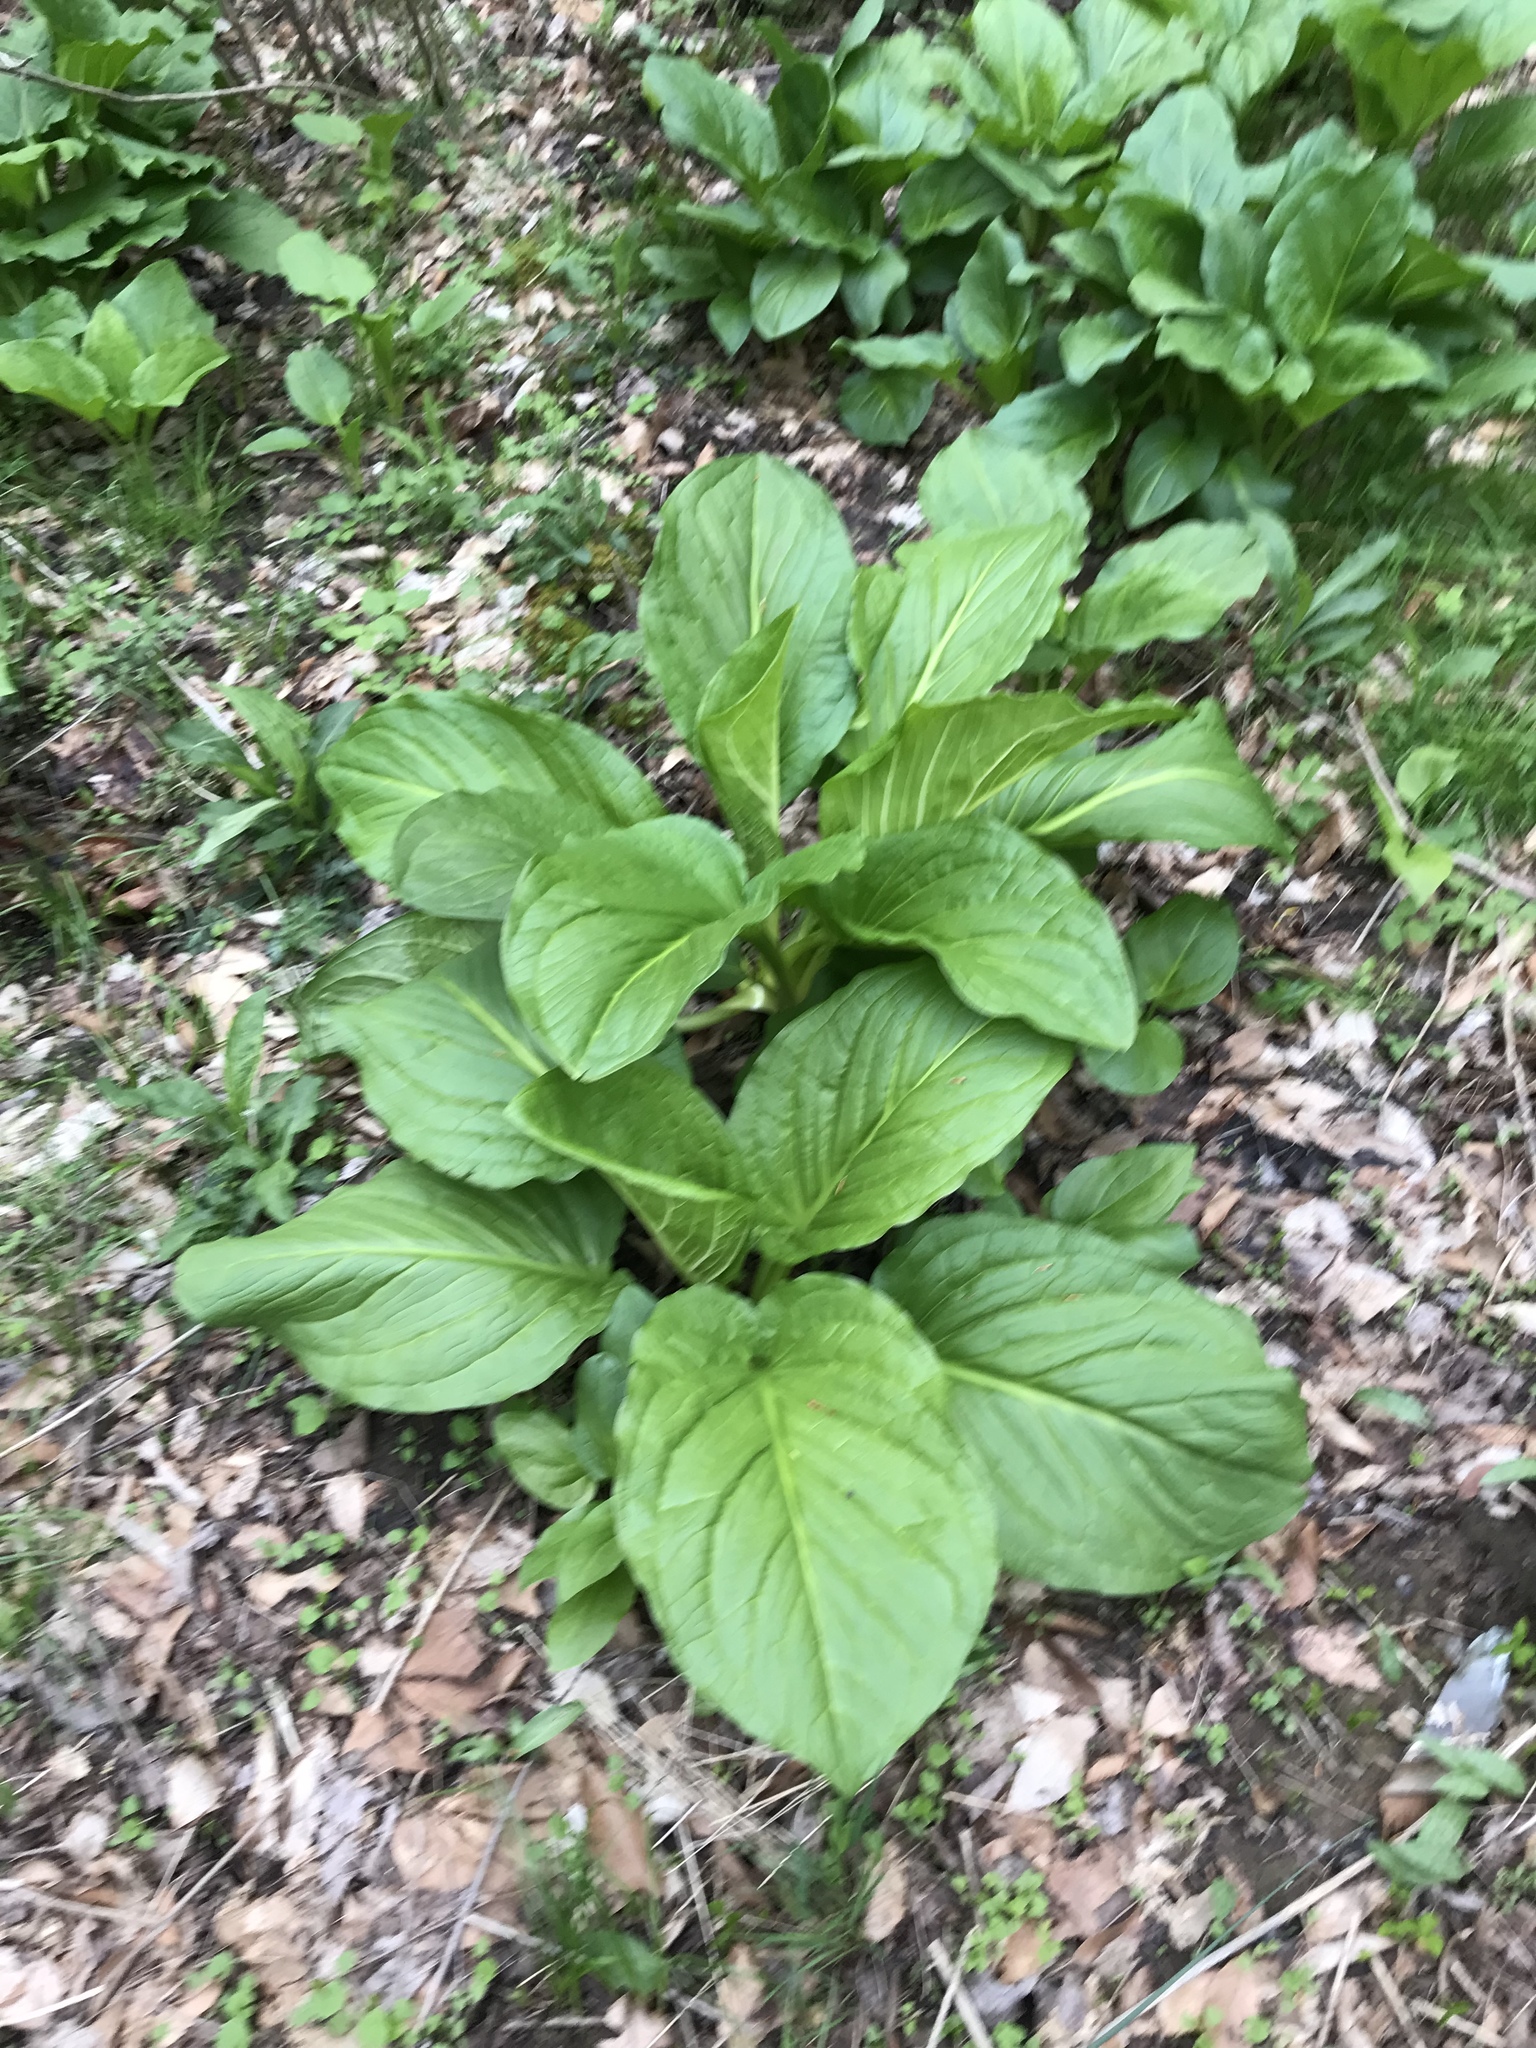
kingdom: Plantae
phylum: Tracheophyta
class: Liliopsida
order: Alismatales
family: Araceae
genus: Symplocarpus
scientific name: Symplocarpus foetidus
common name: Eastern skunk cabbage
